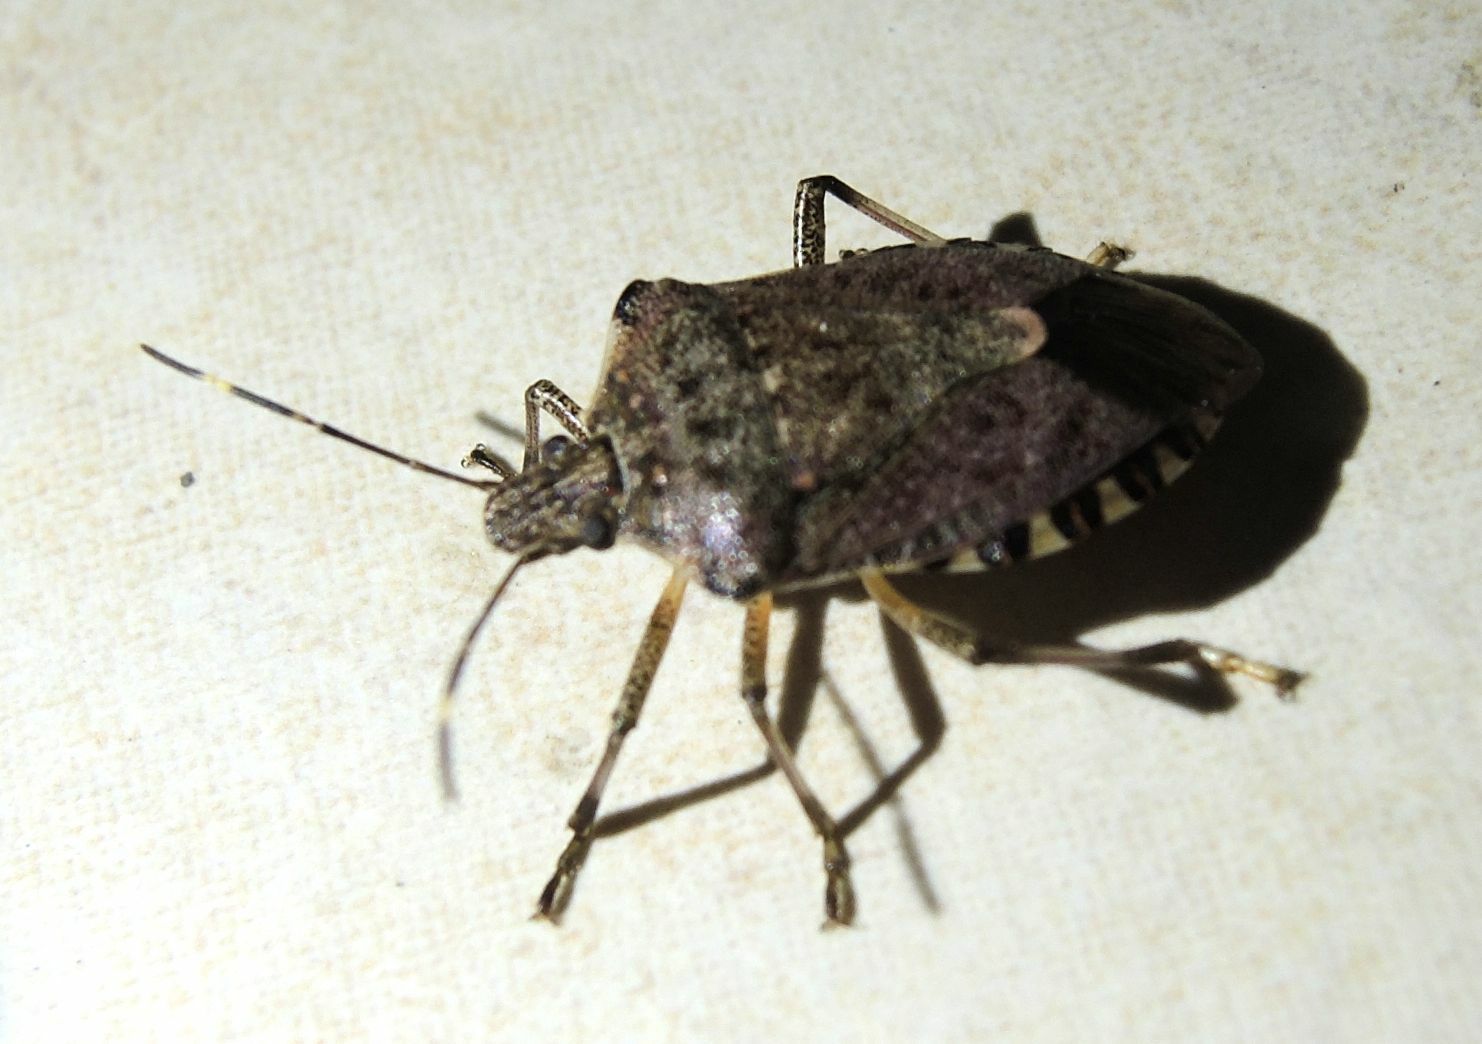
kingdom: Animalia
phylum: Arthropoda
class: Insecta
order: Hemiptera
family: Pentatomidae
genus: Halyomorpha
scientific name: Halyomorpha halys
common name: Brown marmorated stink bug
